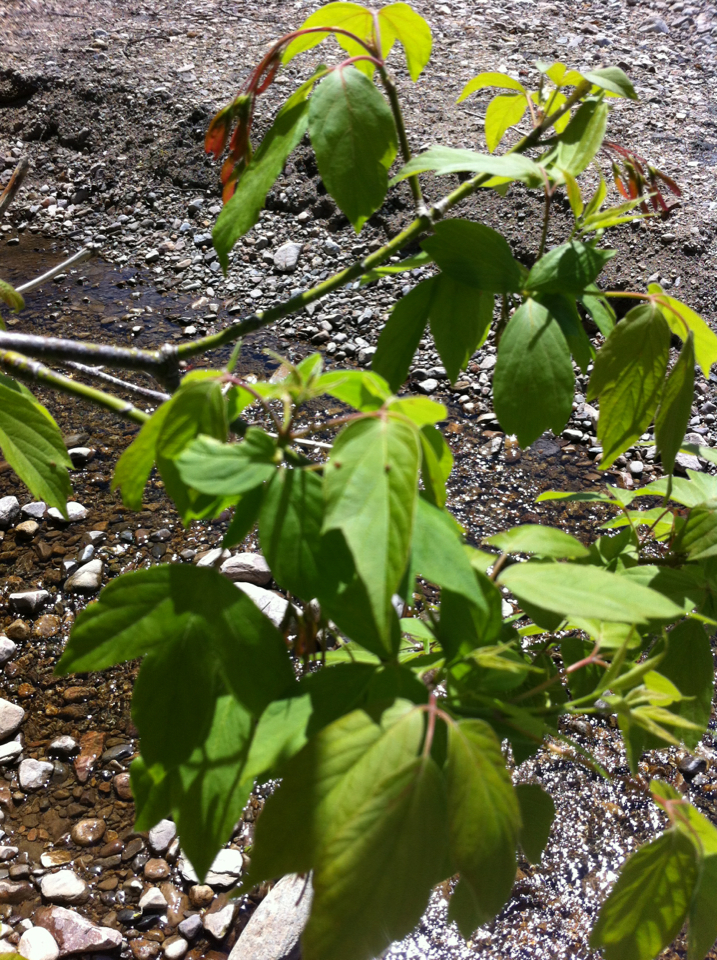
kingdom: Plantae
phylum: Tracheophyta
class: Magnoliopsida
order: Sapindales
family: Sapindaceae
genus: Acer
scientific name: Acer negundo
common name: Ashleaf maple
